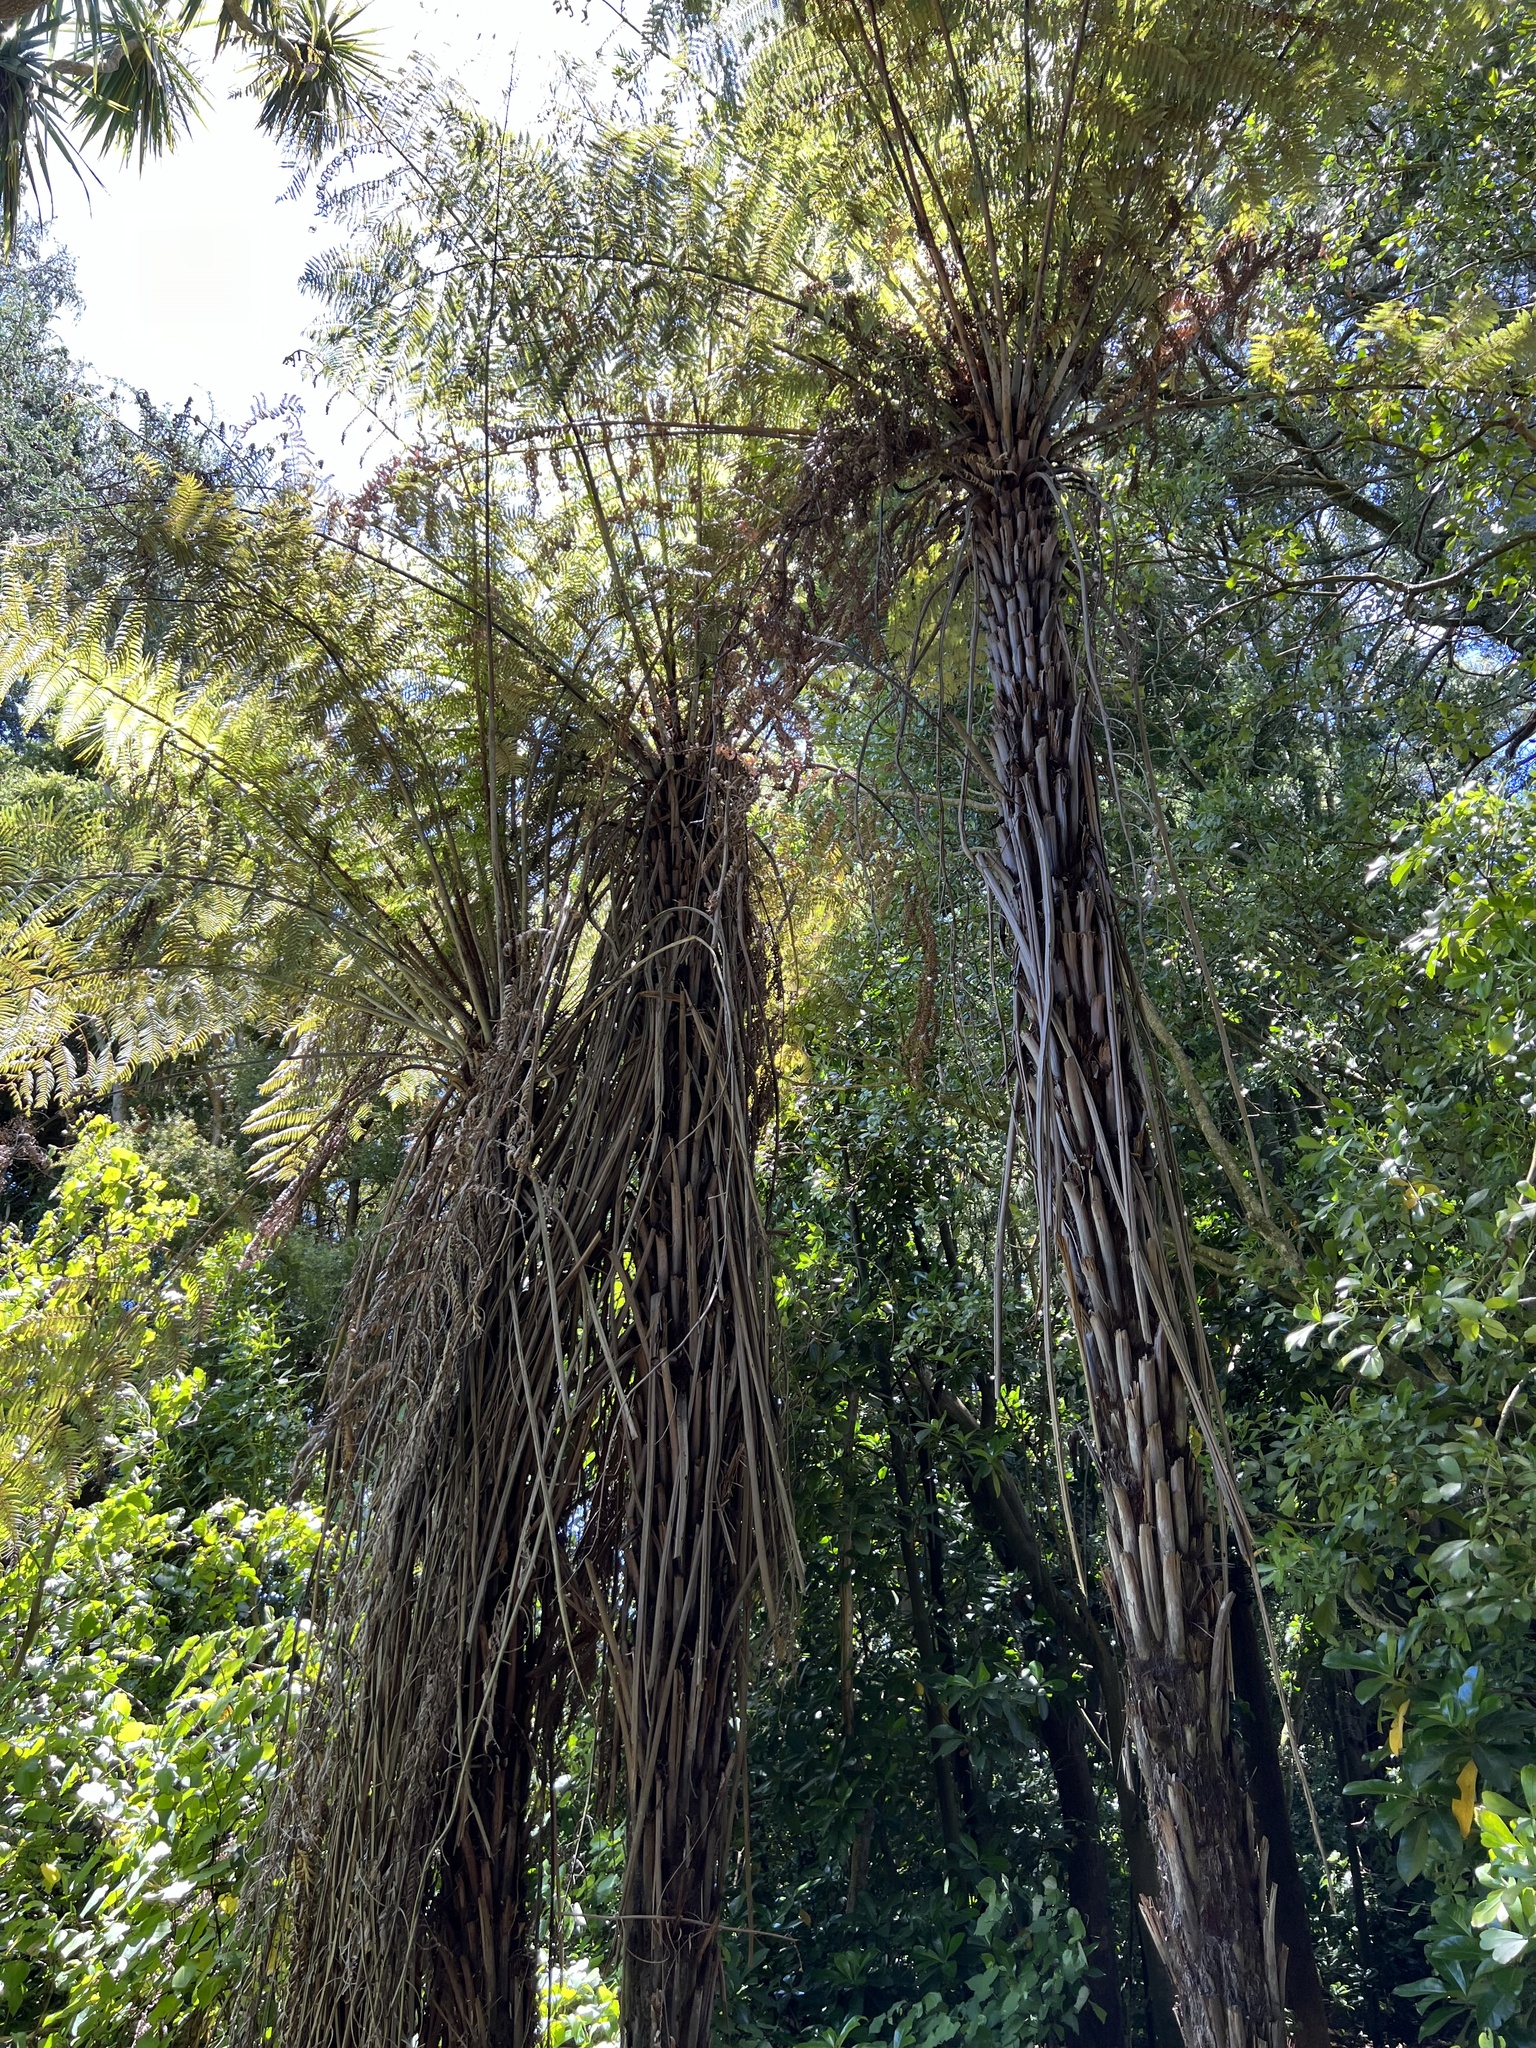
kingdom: Plantae
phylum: Tracheophyta
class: Polypodiopsida
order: Cyatheales
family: Cyatheaceae
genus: Alsophila
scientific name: Alsophila dealbata
